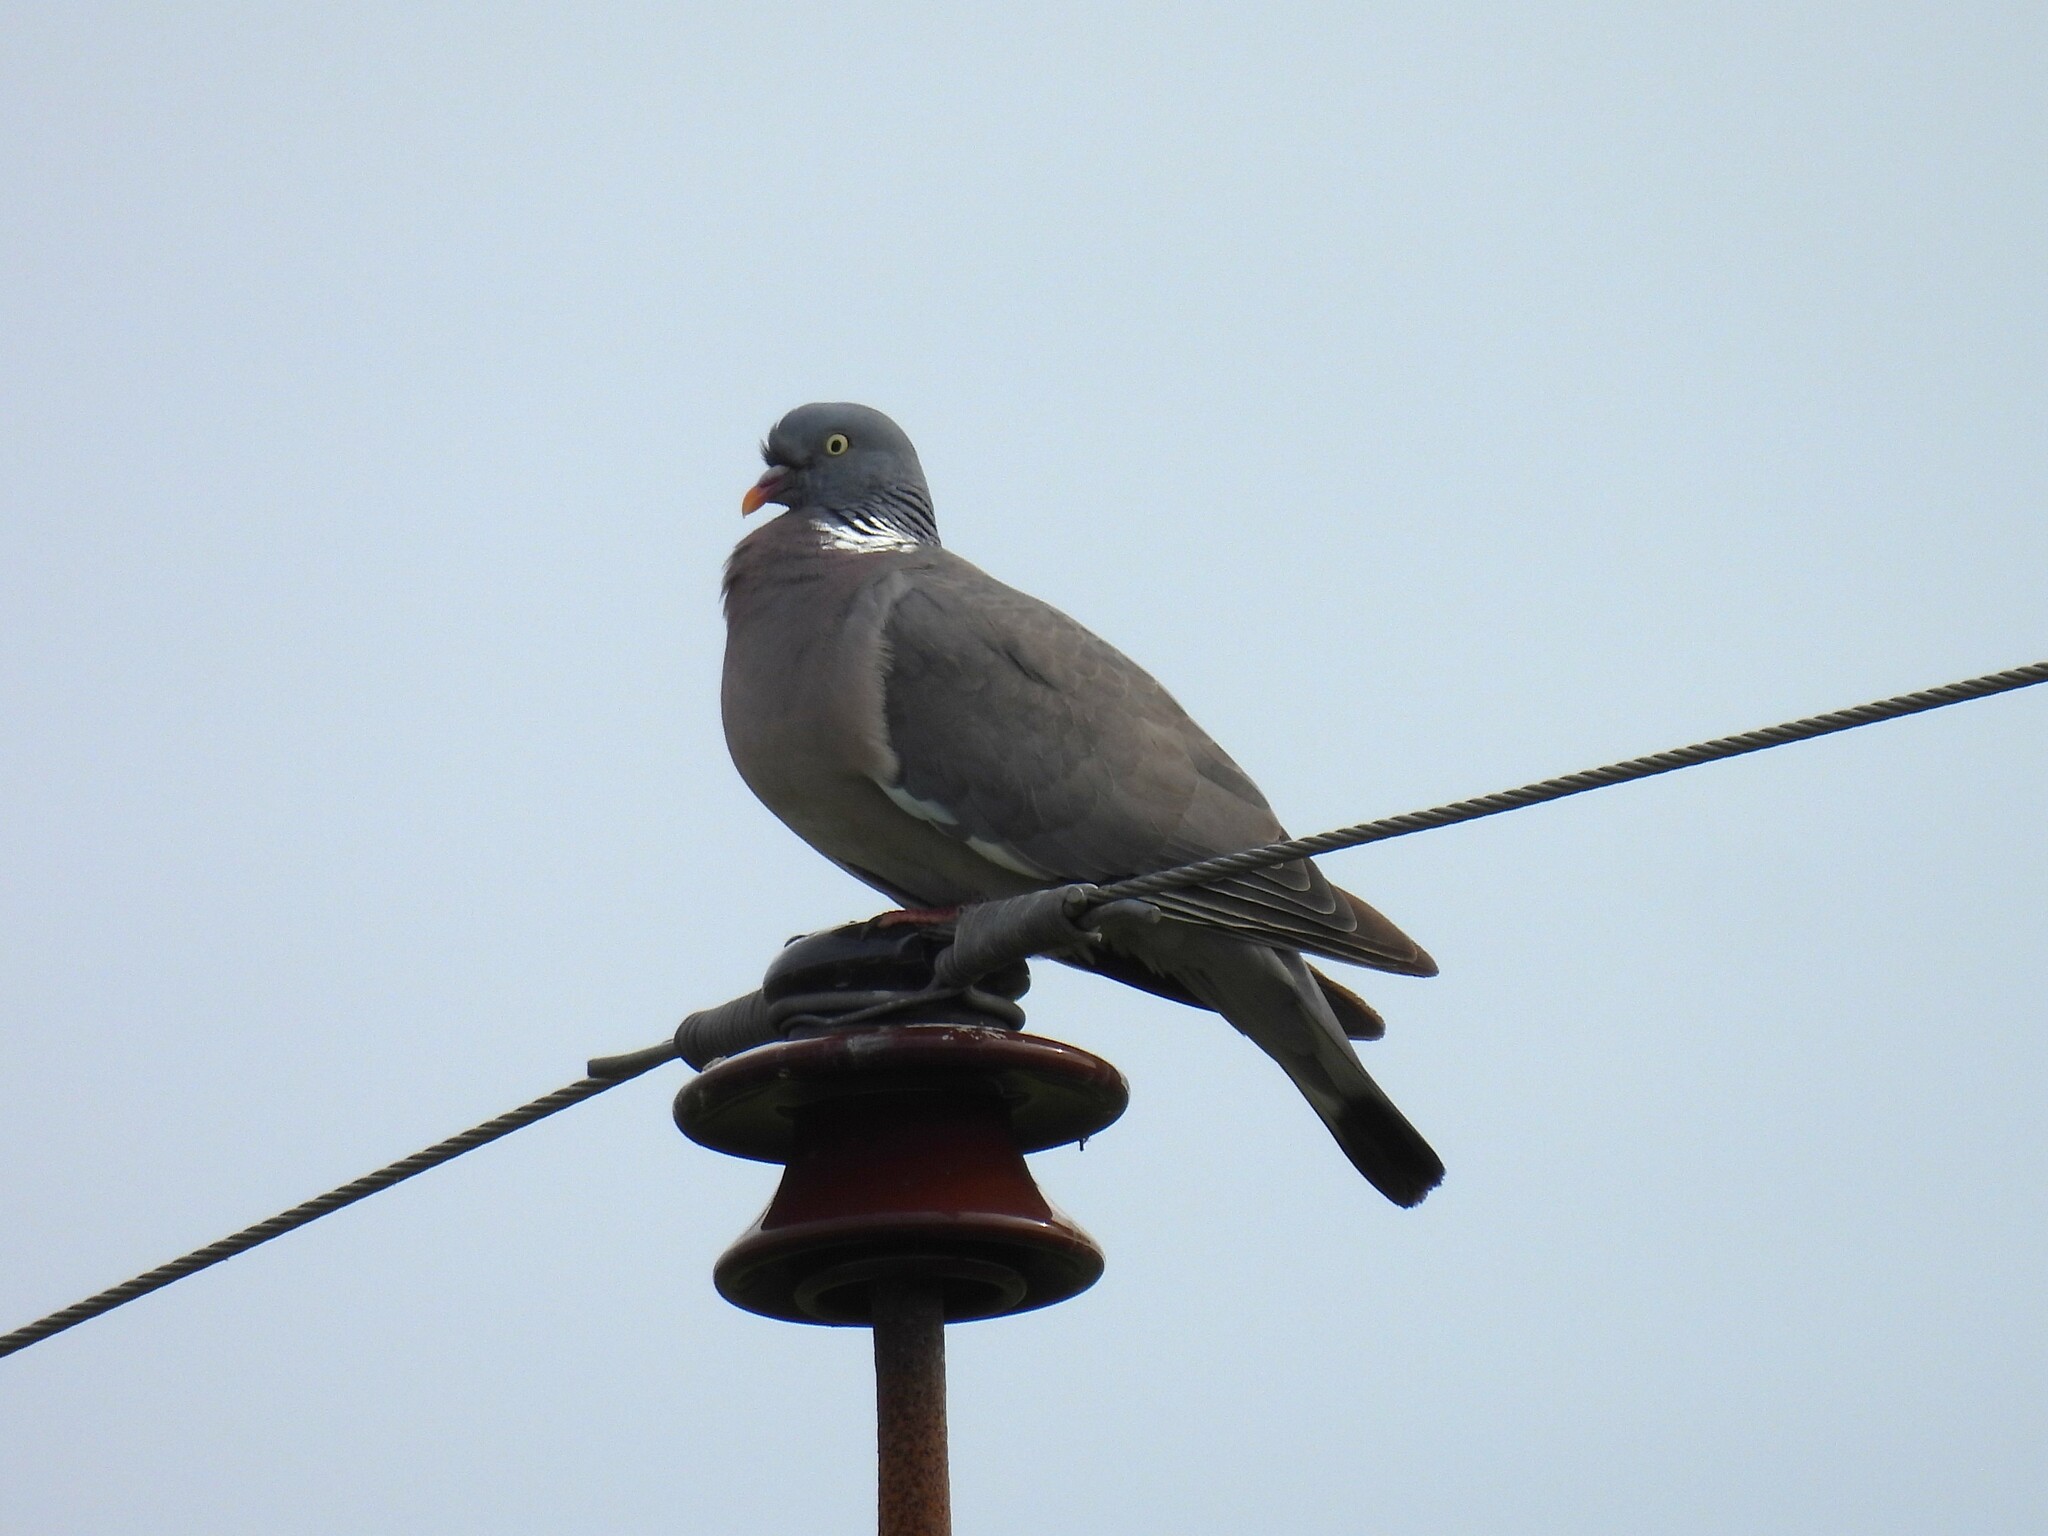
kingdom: Animalia
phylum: Chordata
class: Aves
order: Columbiformes
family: Columbidae
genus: Columba
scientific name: Columba palumbus
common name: Common wood pigeon
